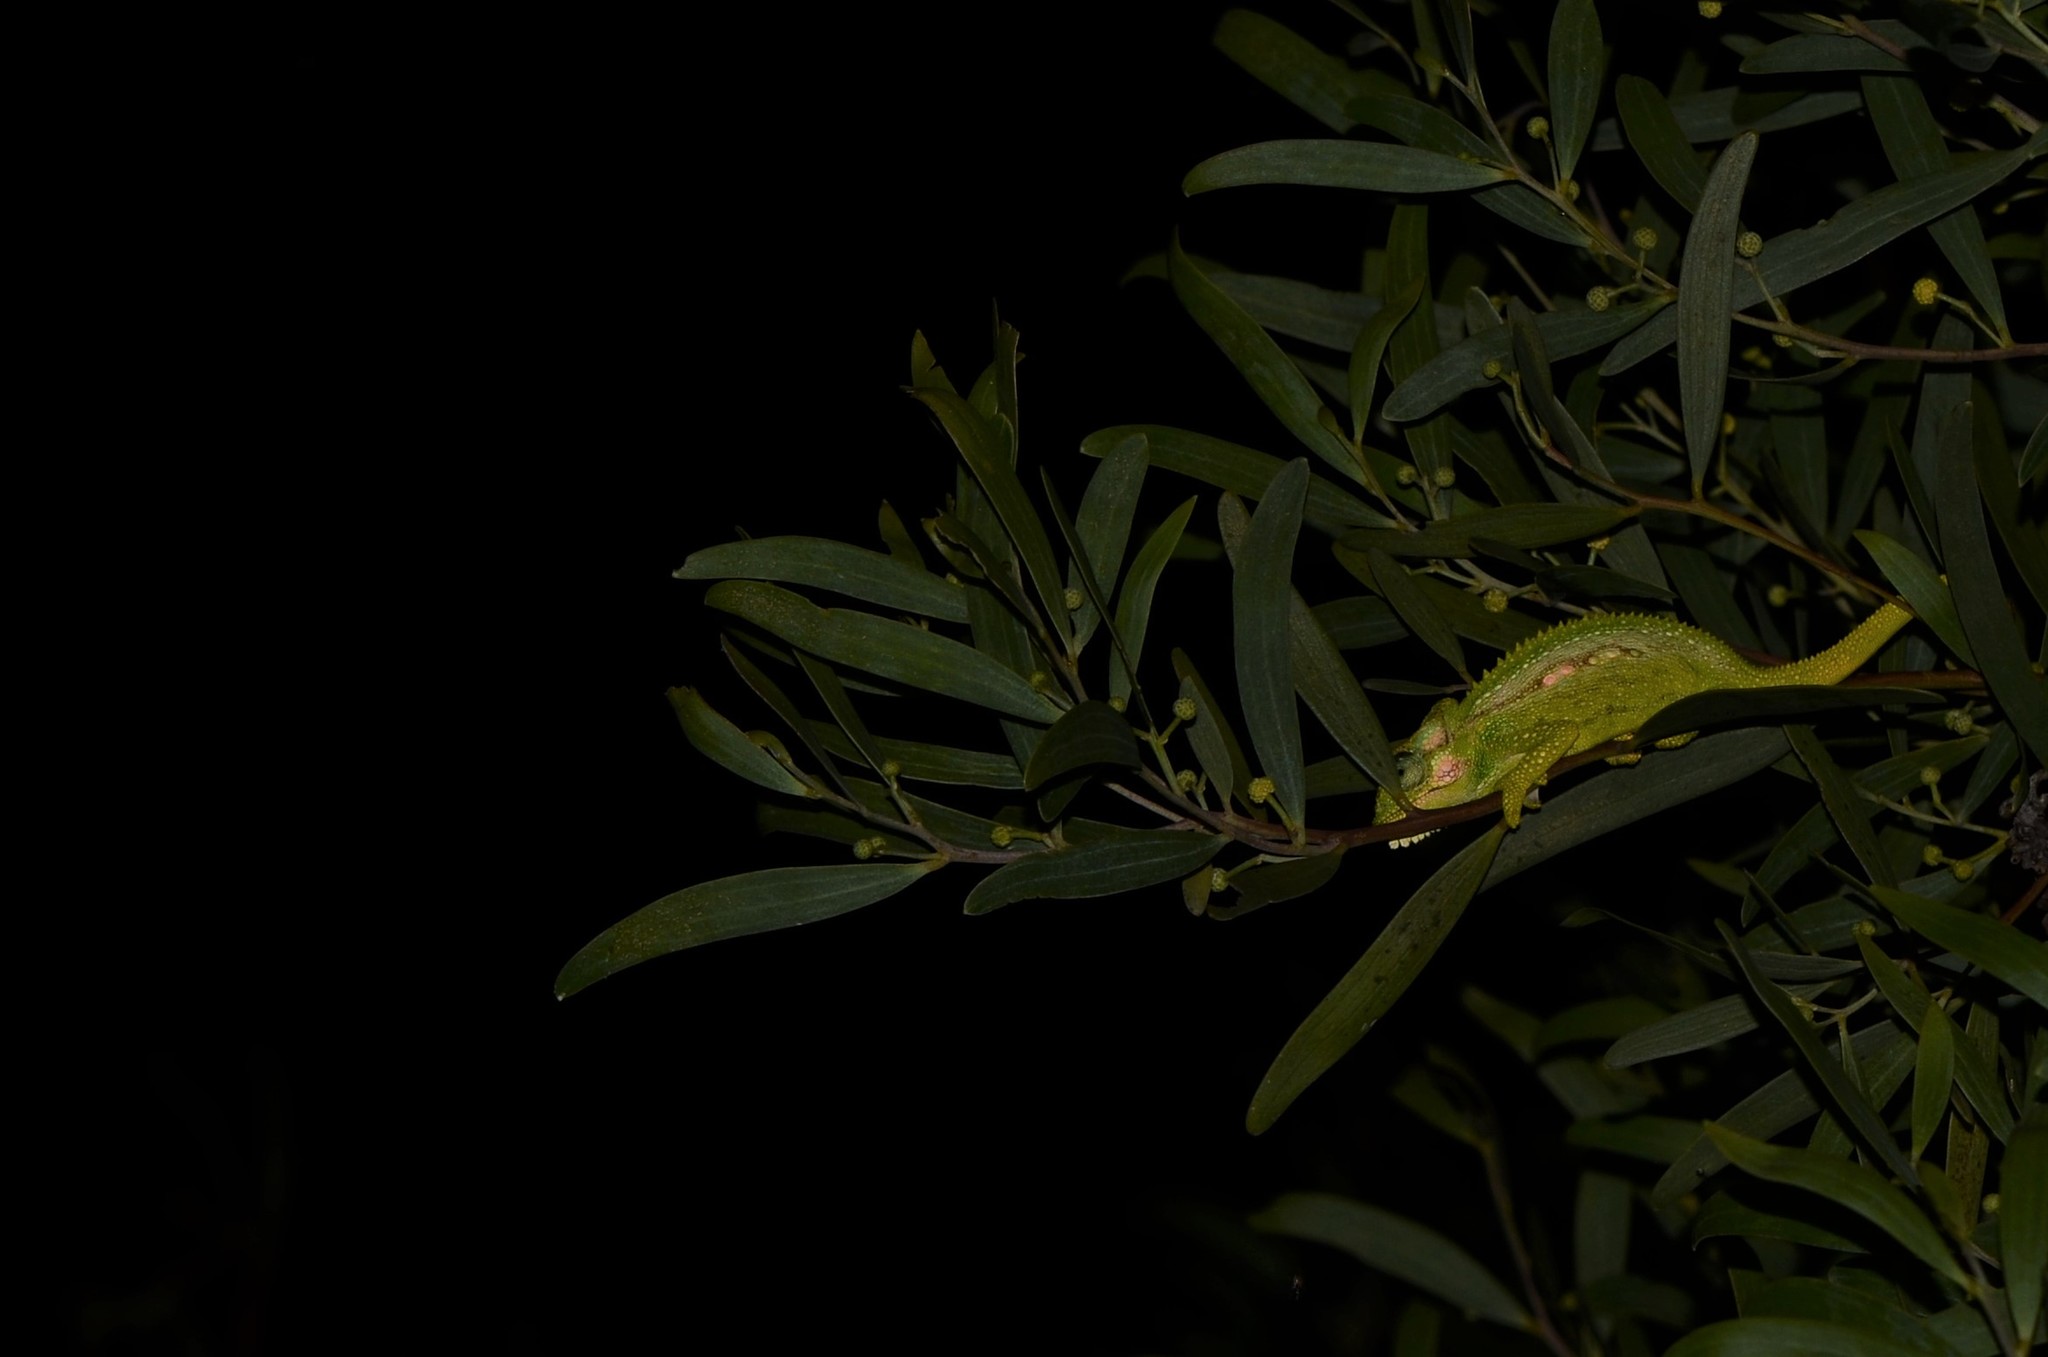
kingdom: Animalia
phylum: Chordata
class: Squamata
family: Chamaeleonidae
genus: Bradypodion
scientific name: Bradypodion pumilum
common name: Cape dwarf chameleon
